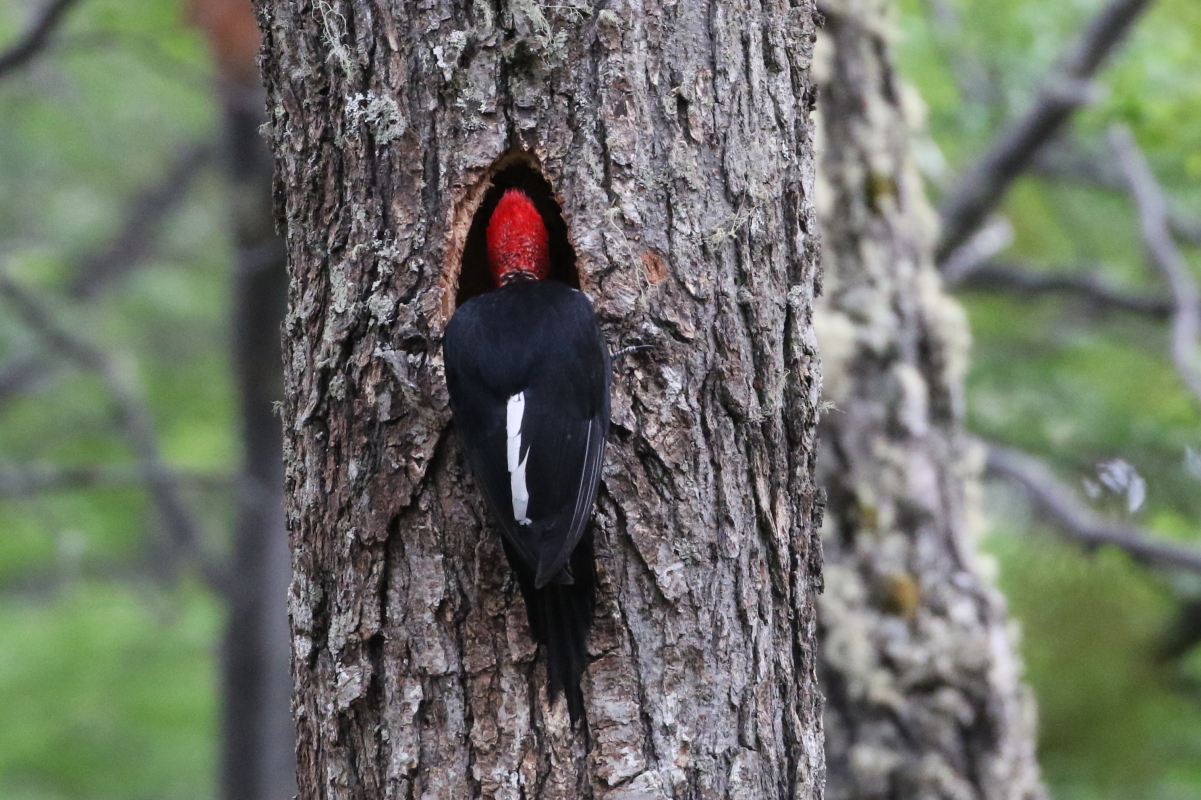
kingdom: Animalia
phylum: Chordata
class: Aves
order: Piciformes
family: Picidae
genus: Campephilus
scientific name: Campephilus magellanicus
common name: Magellanic woodpecker
